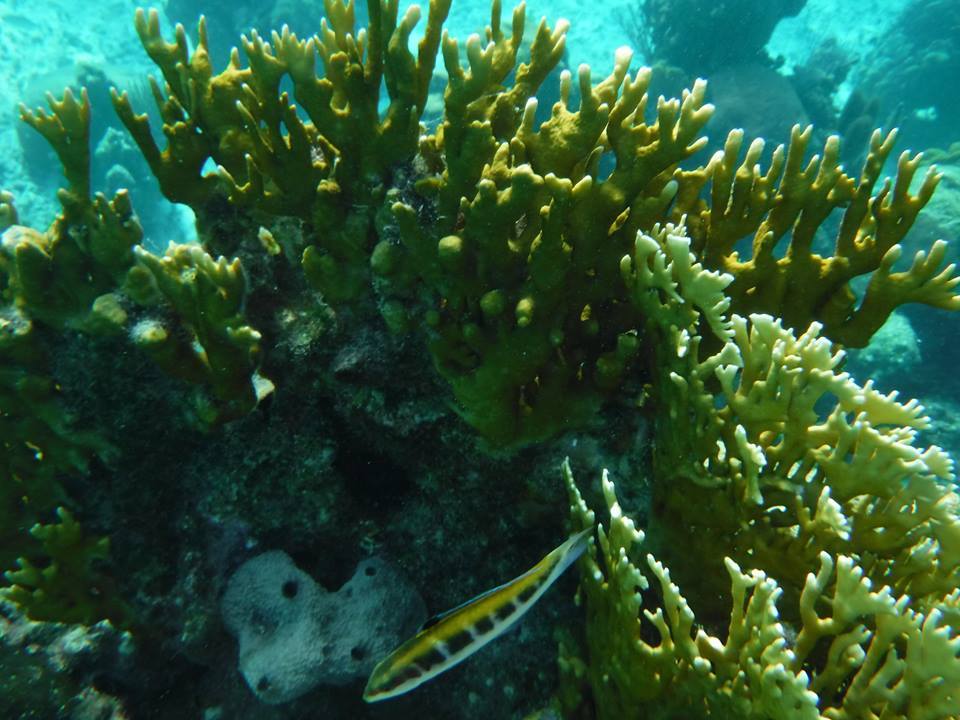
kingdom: Animalia
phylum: Chordata
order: Perciformes
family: Labridae
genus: Thalassoma
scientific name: Thalassoma bifasciatum
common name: Bluehead wrasse
